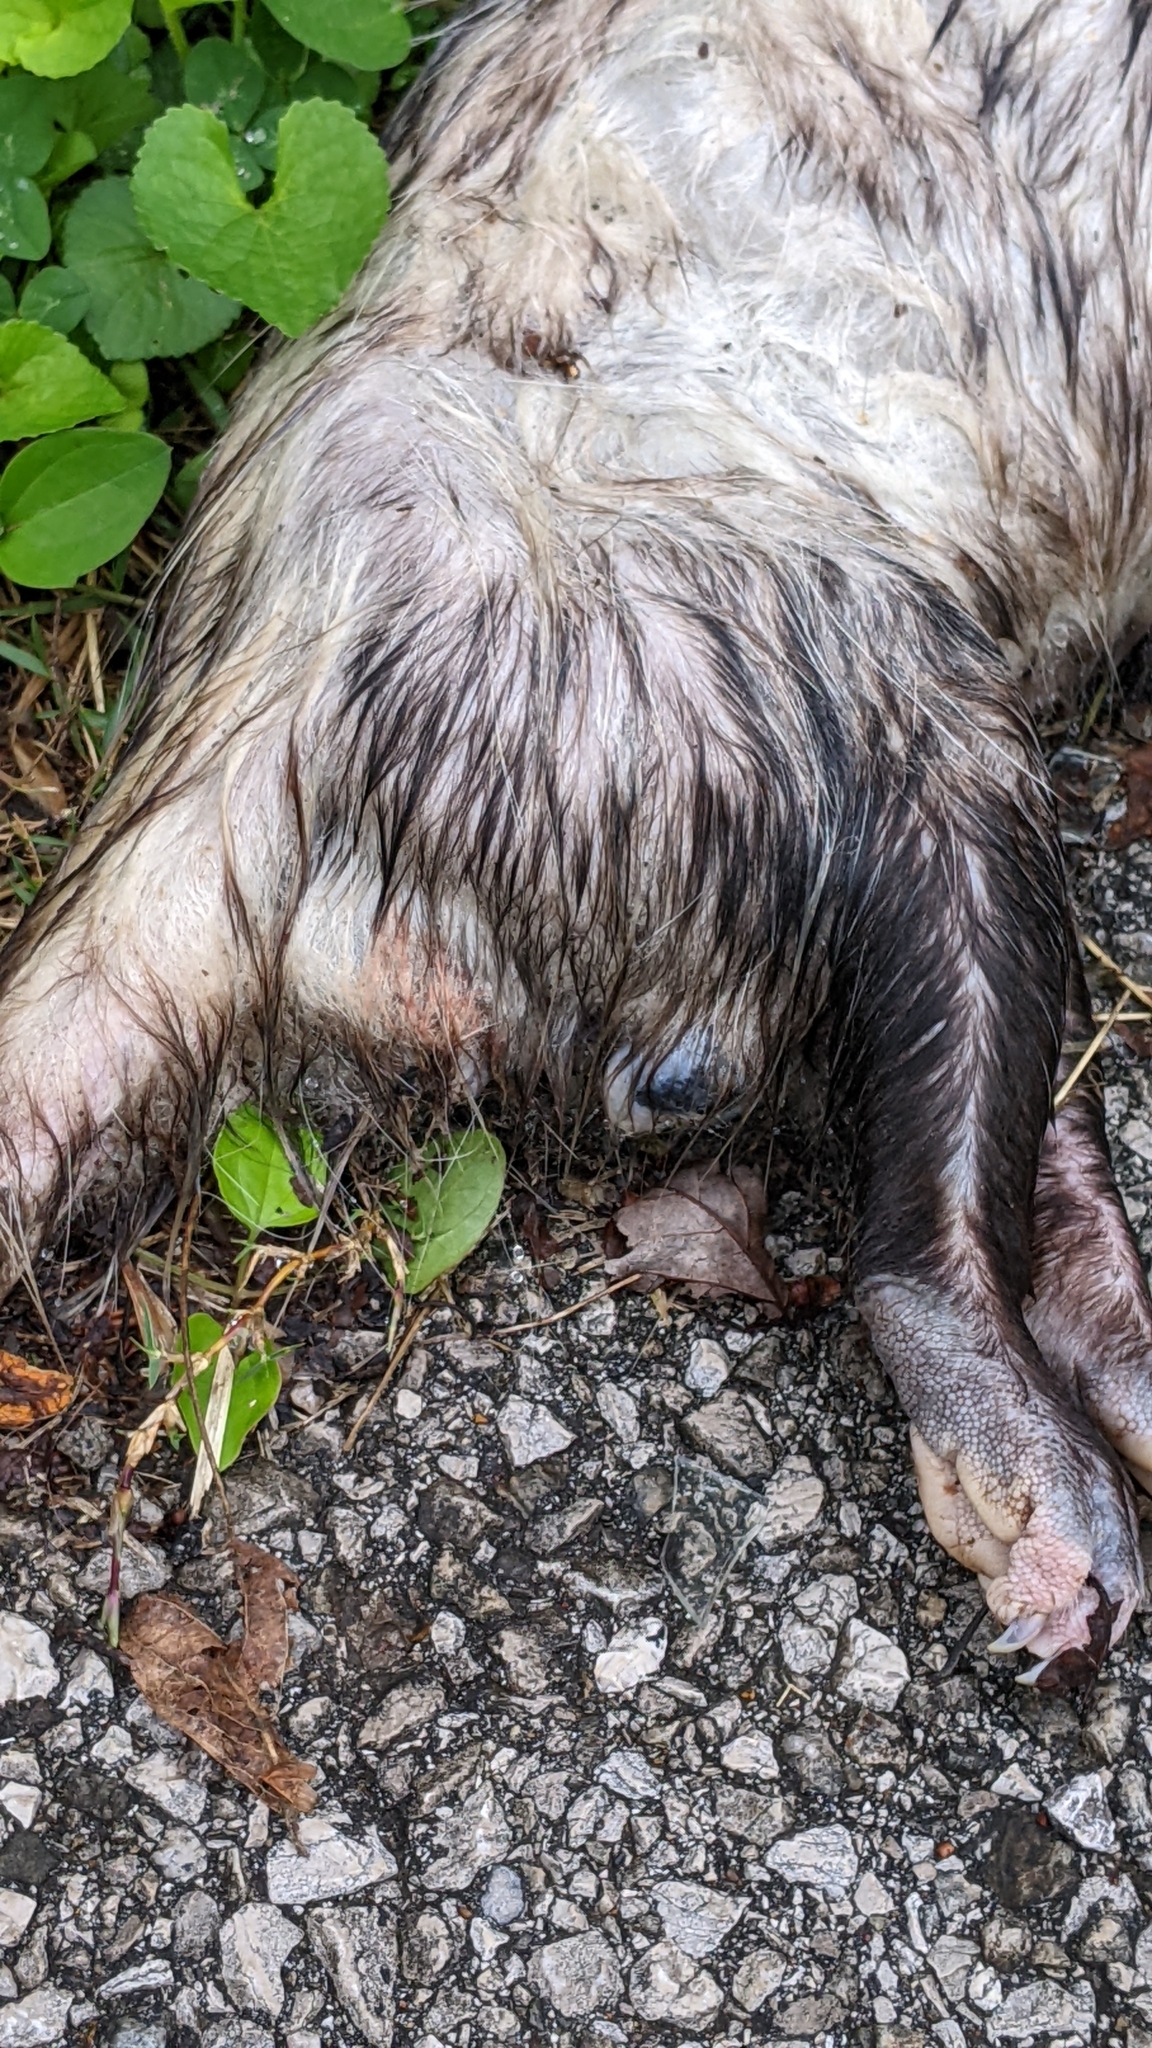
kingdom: Animalia
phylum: Chordata
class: Mammalia
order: Didelphimorphia
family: Didelphidae
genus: Didelphis
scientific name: Didelphis virginiana
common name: Virginia opossum
